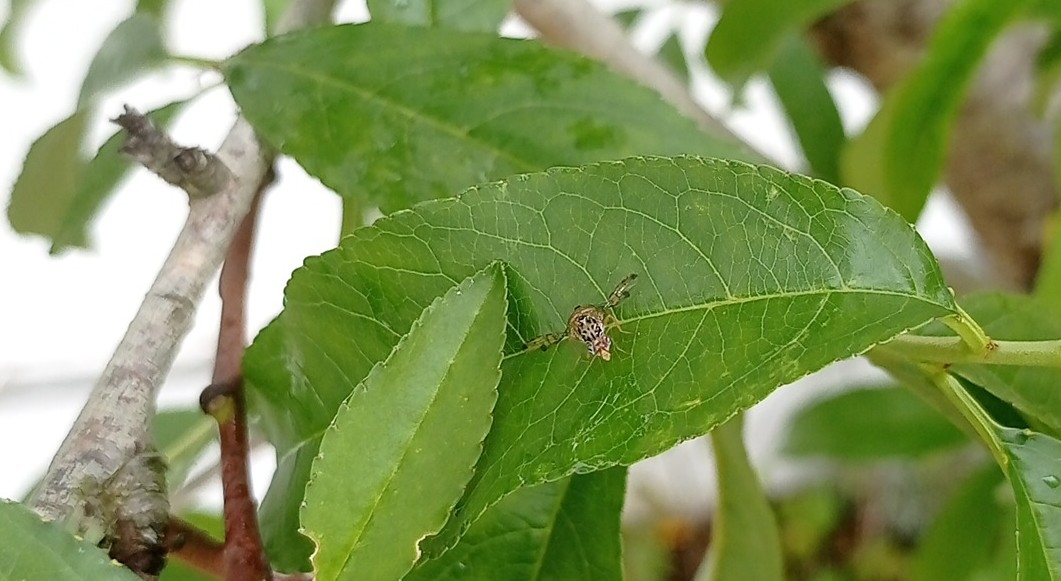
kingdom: Animalia
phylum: Arthropoda
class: Insecta
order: Diptera
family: Tephritidae
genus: Ceratitis
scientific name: Ceratitis capitata
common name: Mediterranean fruit fly
